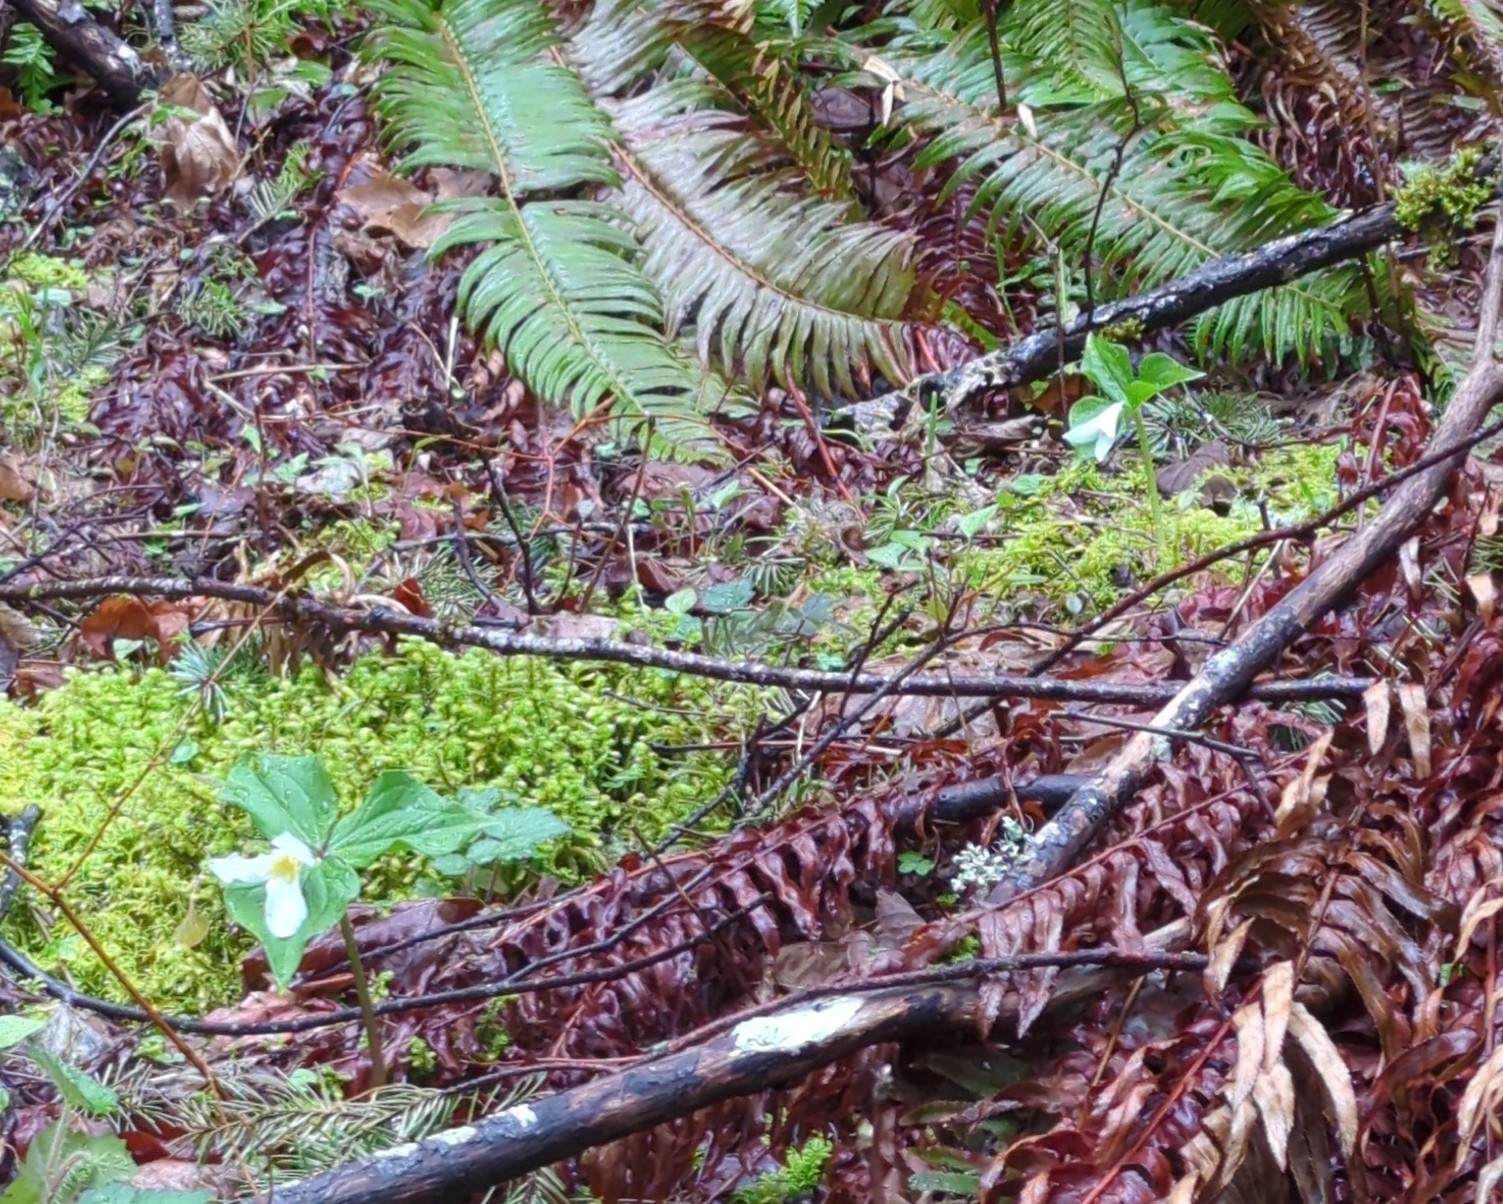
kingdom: Plantae
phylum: Tracheophyta
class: Liliopsida
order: Liliales
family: Melanthiaceae
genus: Trillium
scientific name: Trillium ovatum
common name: Pacific trillium
